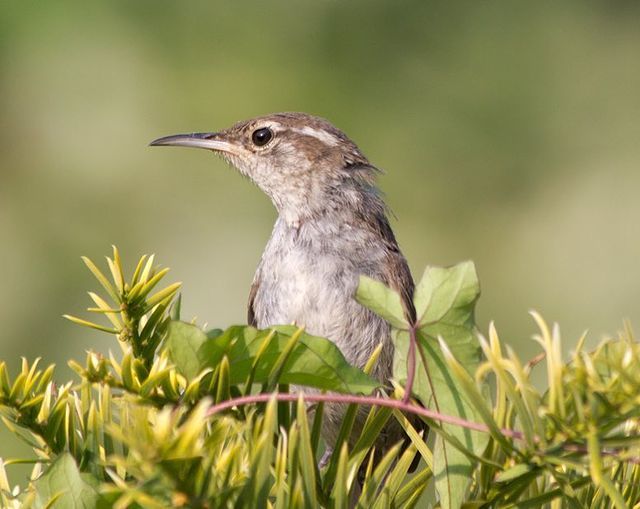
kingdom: Animalia
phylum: Chordata
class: Aves
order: Passeriformes
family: Troglodytidae
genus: Thryomanes
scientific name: Thryomanes bewickii
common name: Bewick's wren
